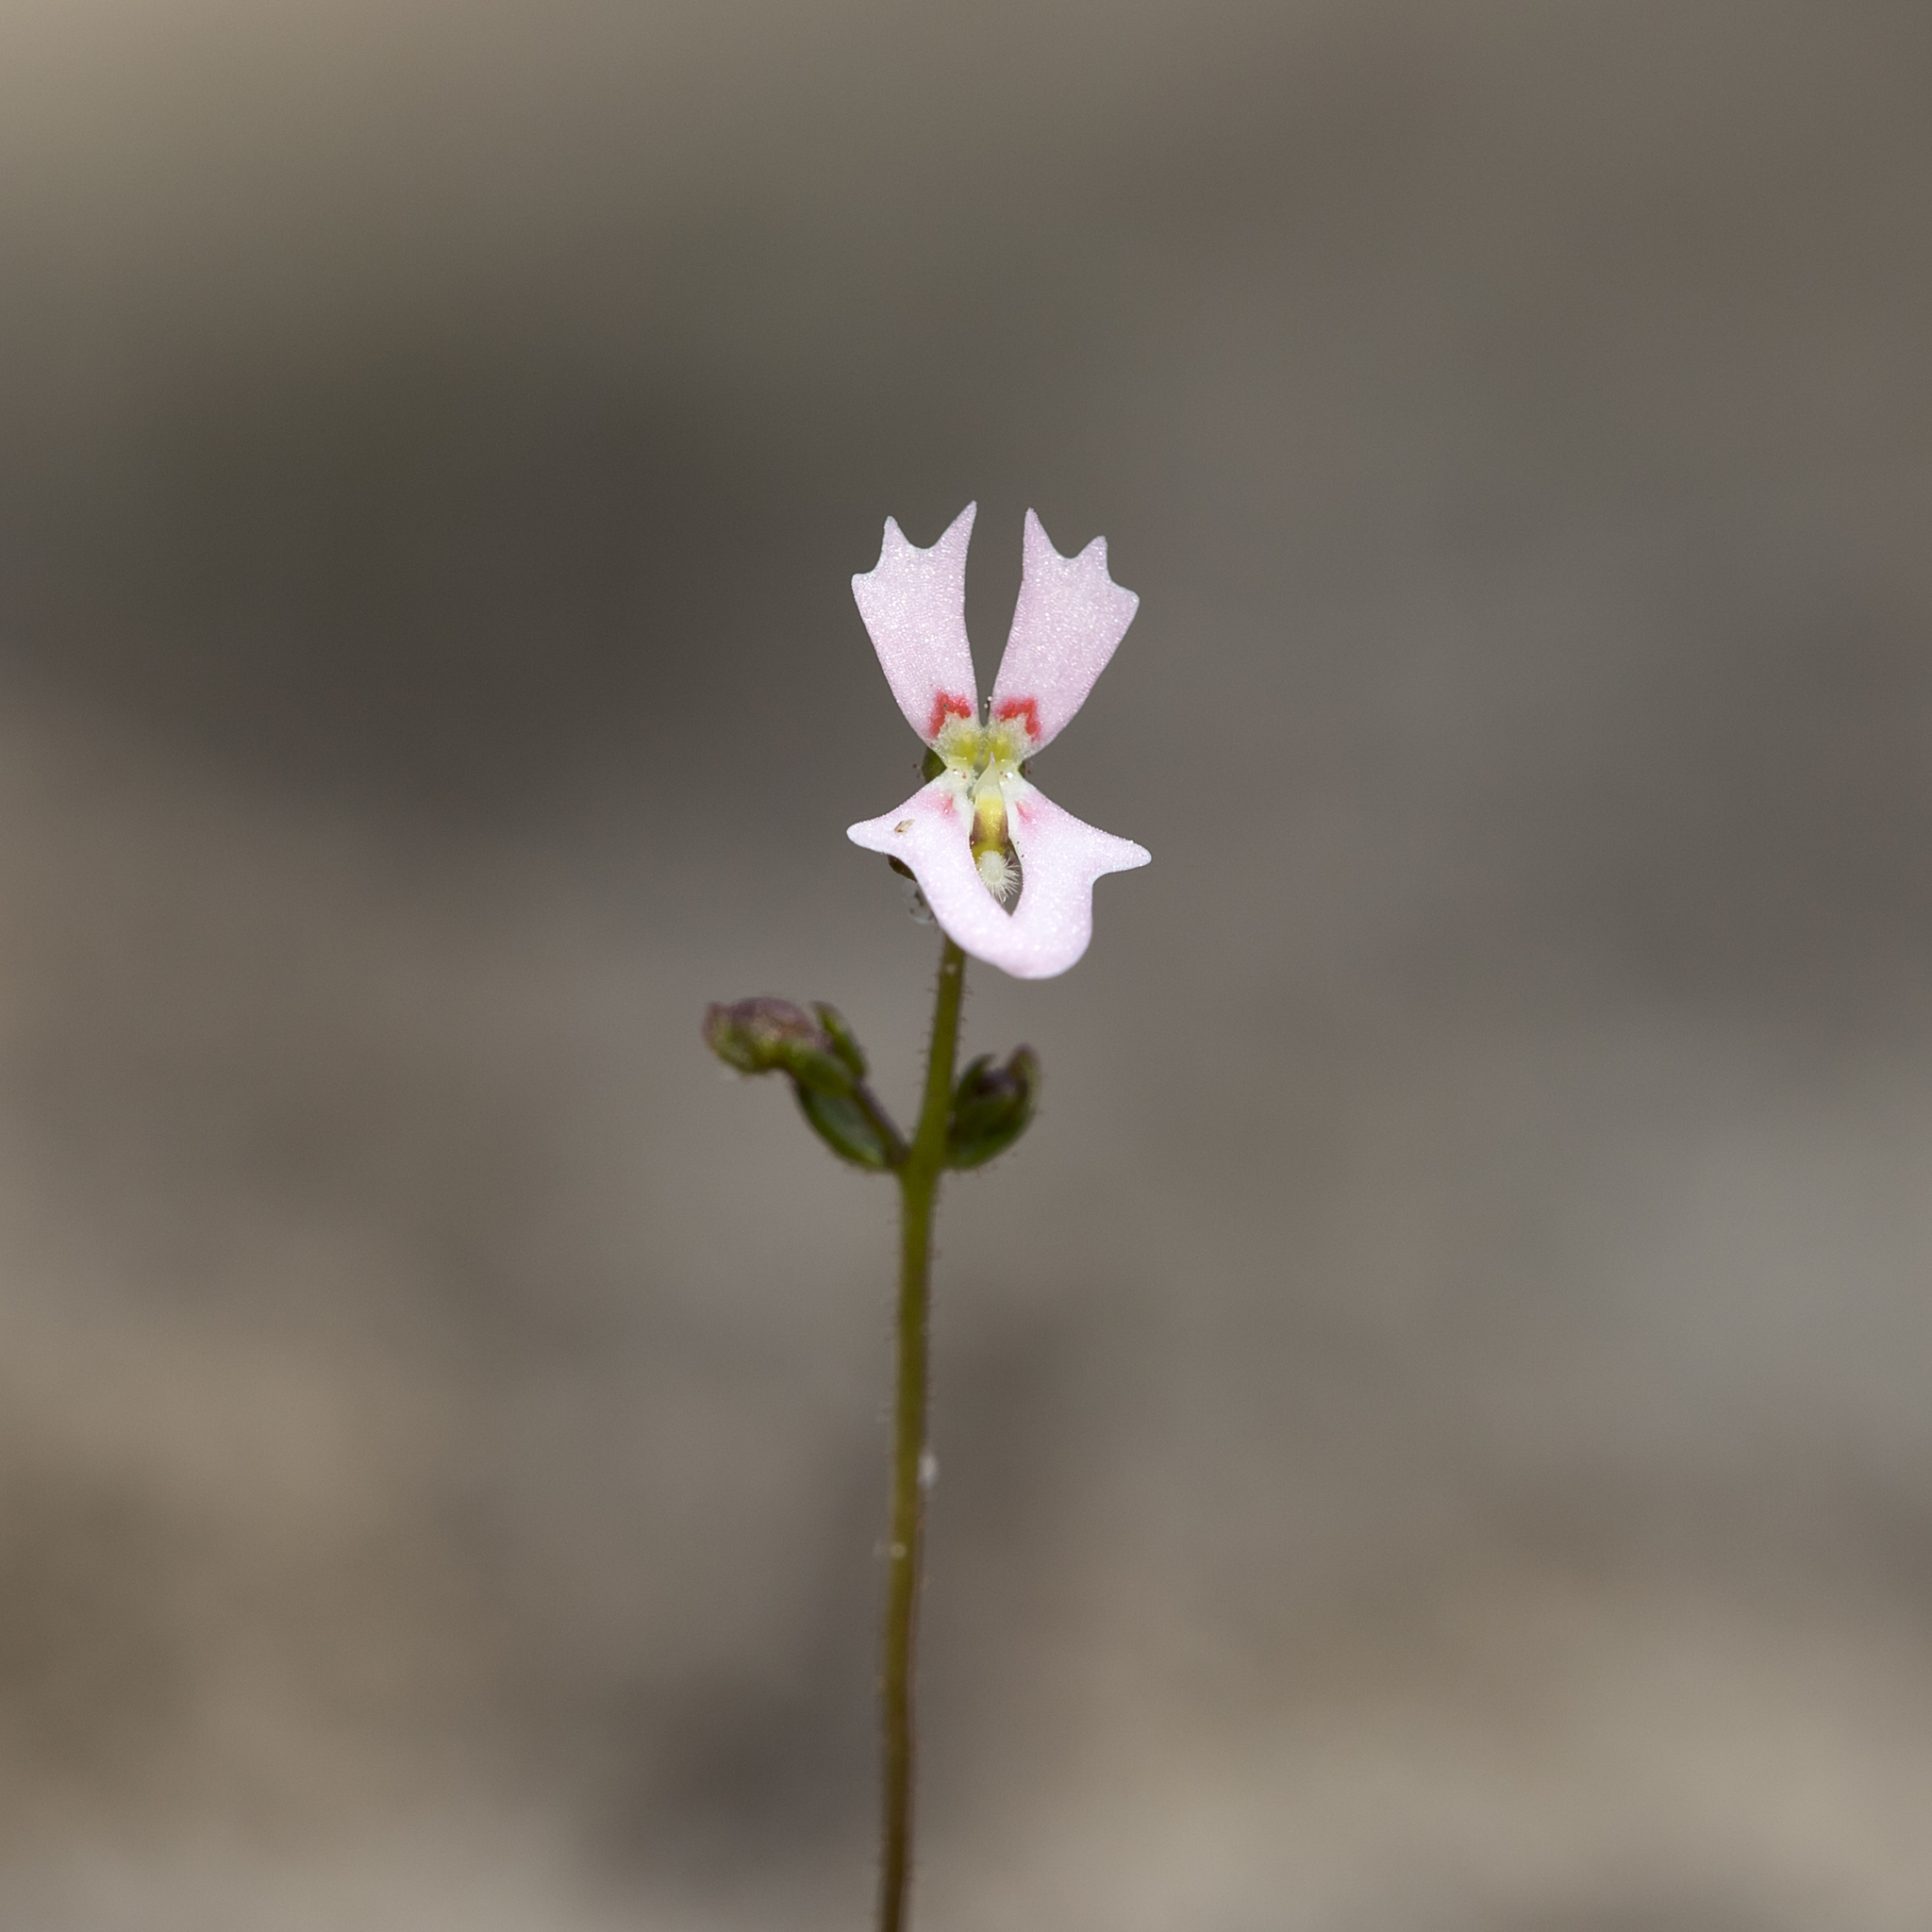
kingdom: Plantae
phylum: Tracheophyta
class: Magnoliopsida
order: Asterales
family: Stylidiaceae
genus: Stylidium
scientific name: Stylidium calcaratum
